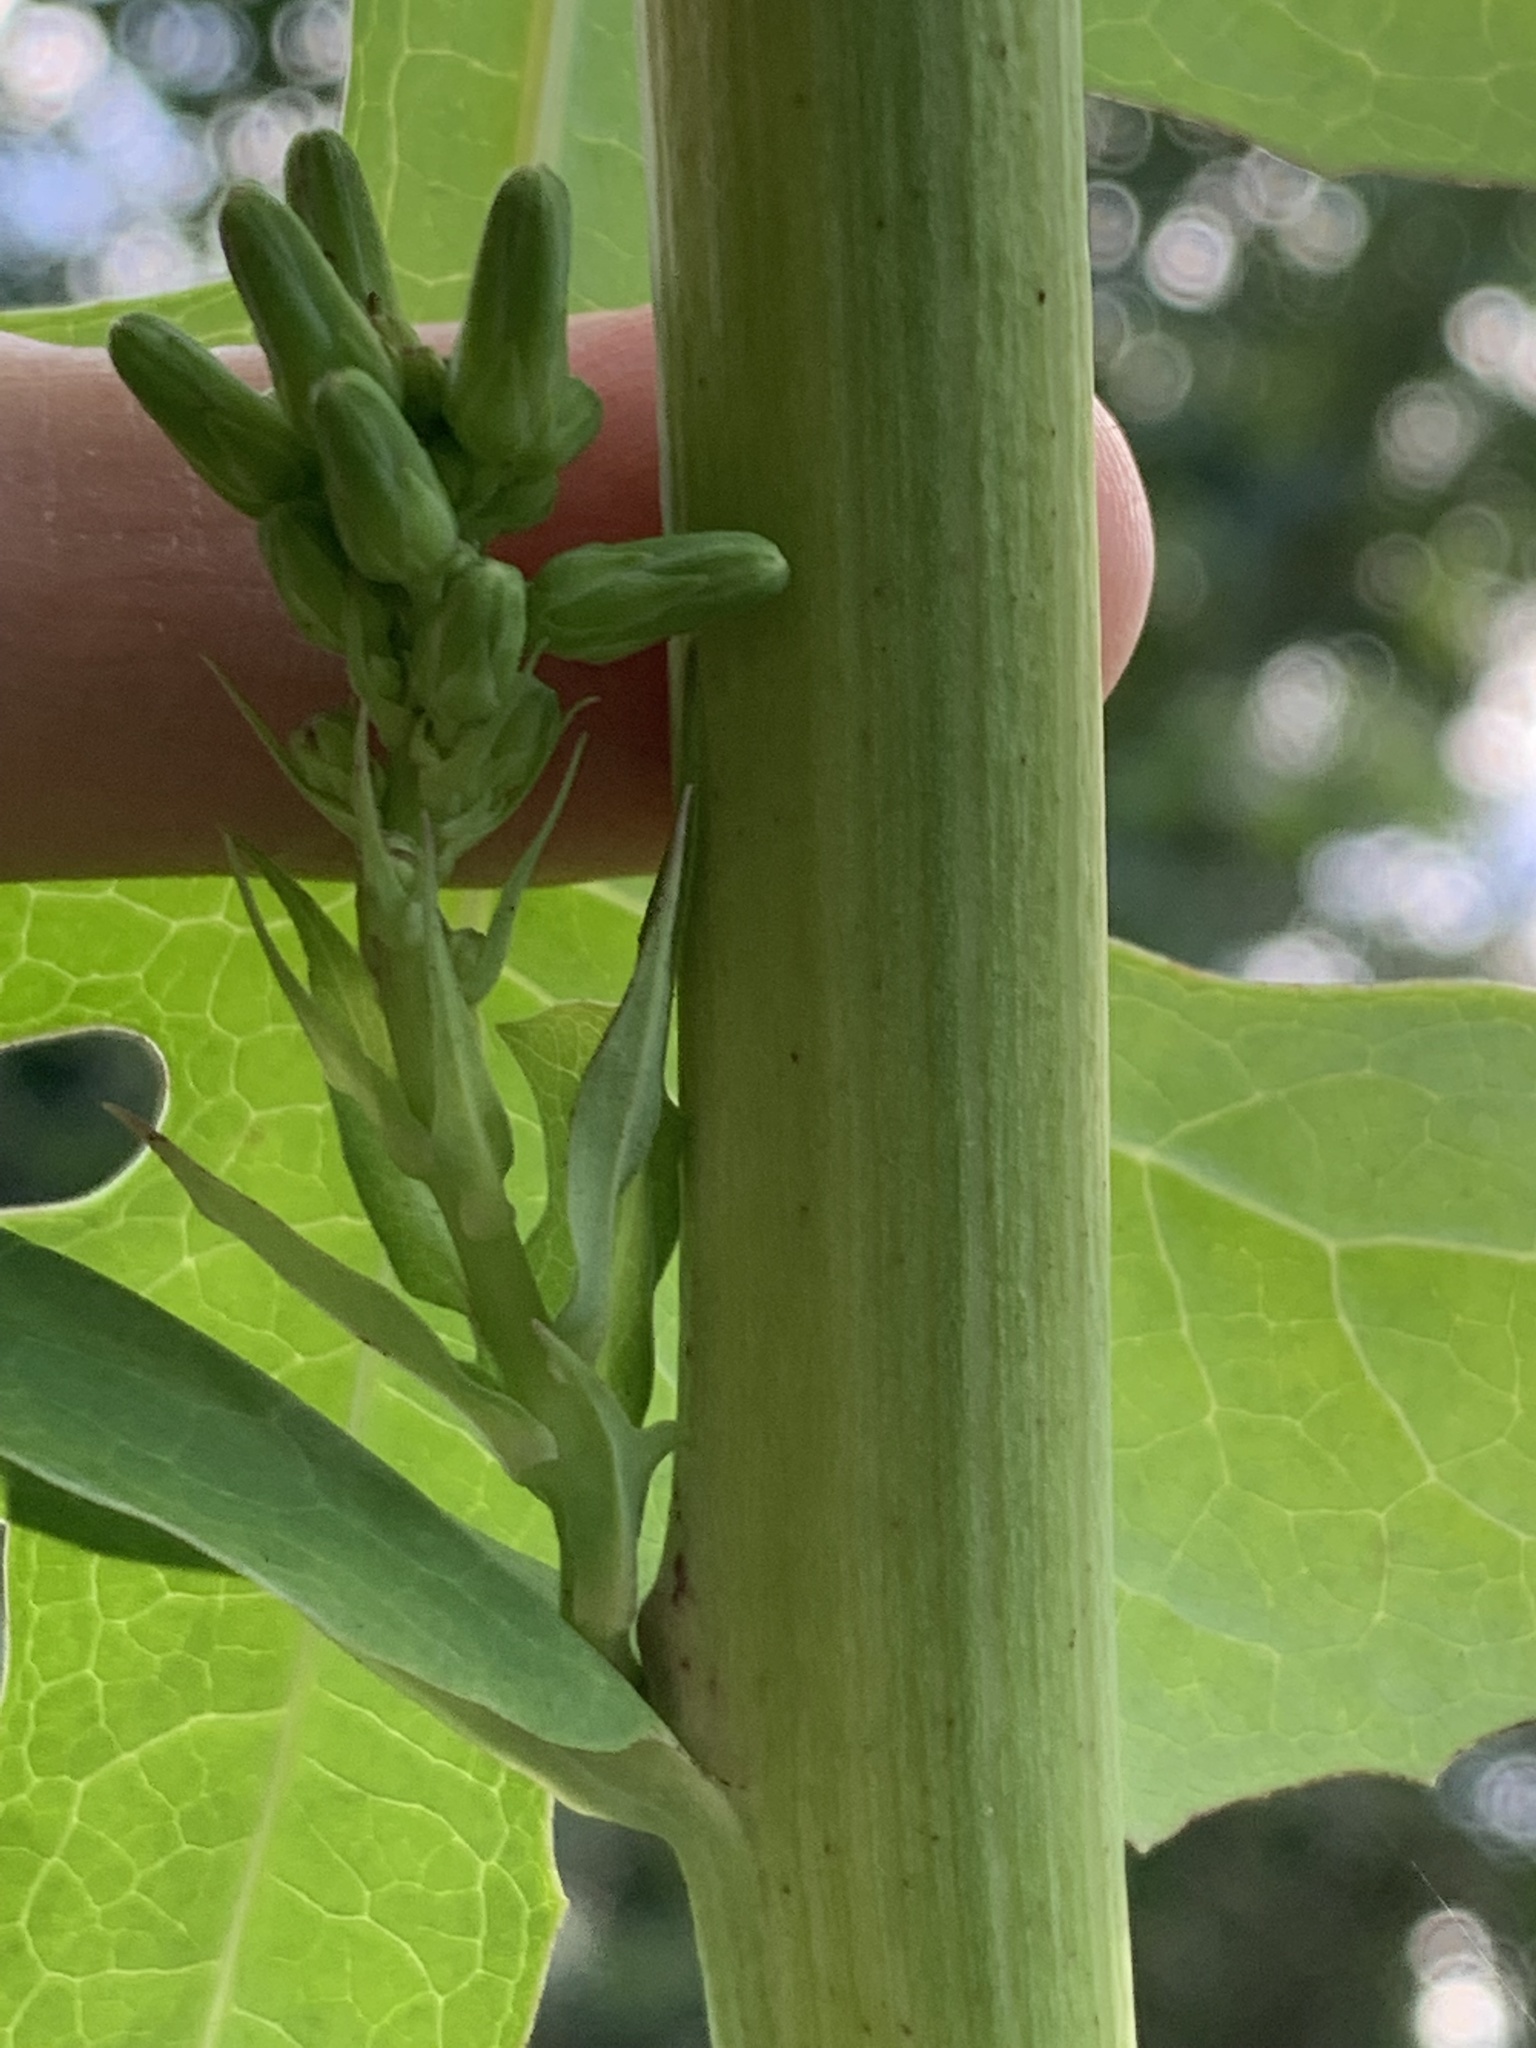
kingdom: Plantae
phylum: Tracheophyta
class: Magnoliopsida
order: Asterales
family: Asteraceae
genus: Lactuca
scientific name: Lactuca canadensis
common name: Canada lettuce
